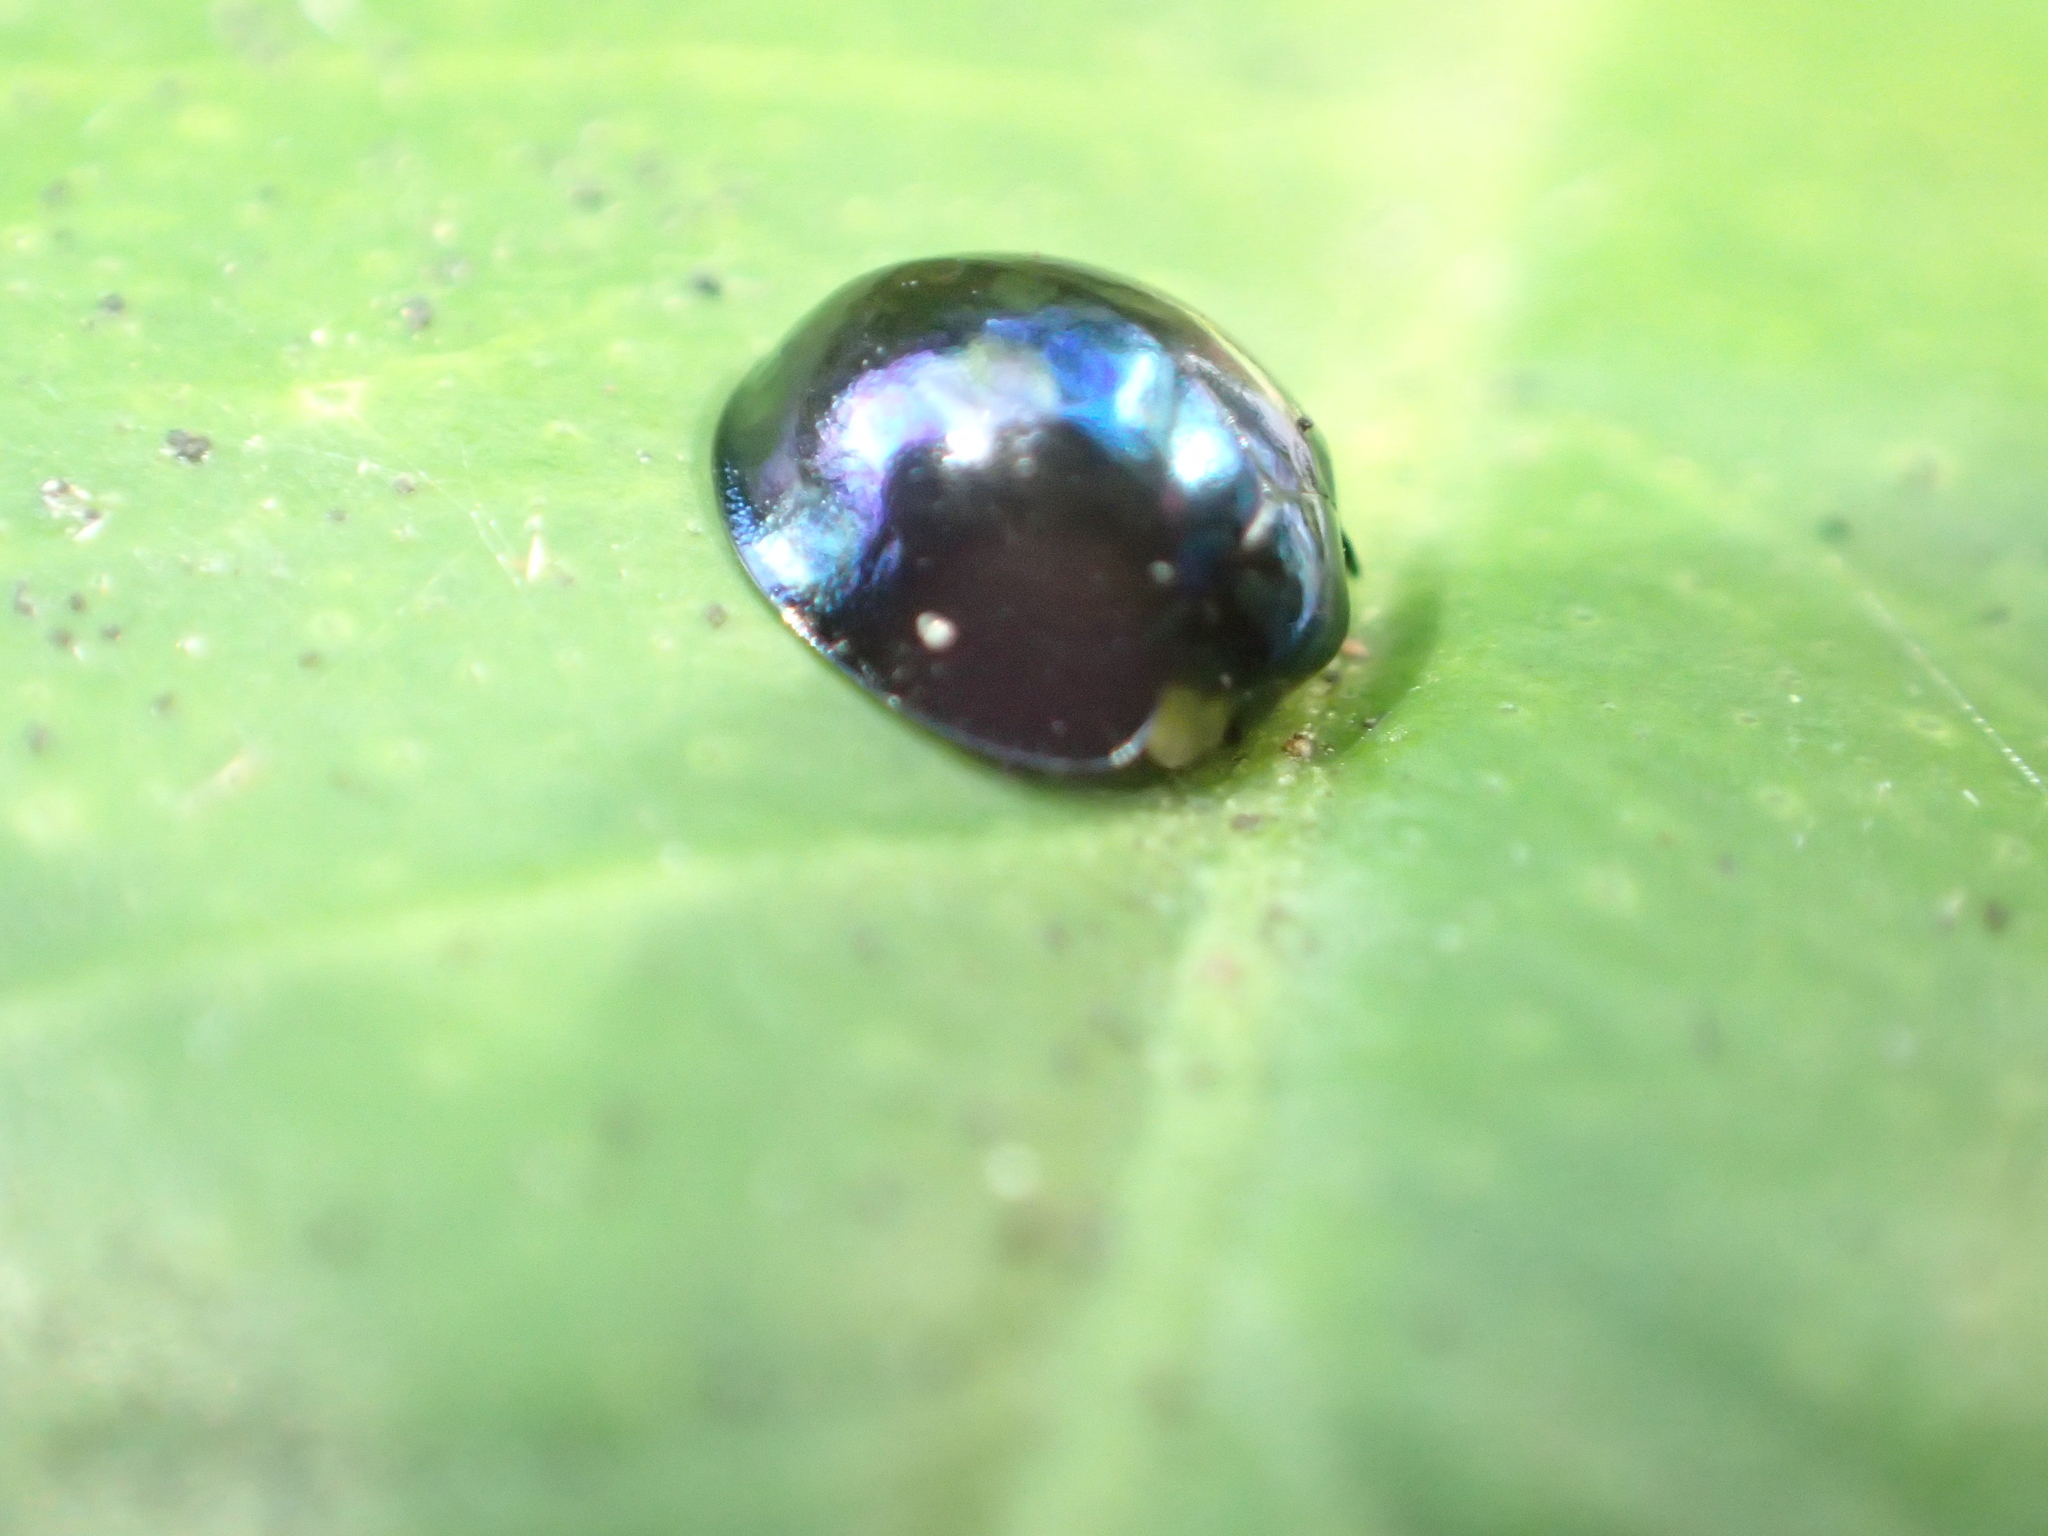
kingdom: Animalia
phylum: Arthropoda
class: Insecta
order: Coleoptera
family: Coccinellidae
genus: Halmus
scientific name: Halmus chalybeus
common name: Steel blue ladybird beetle
